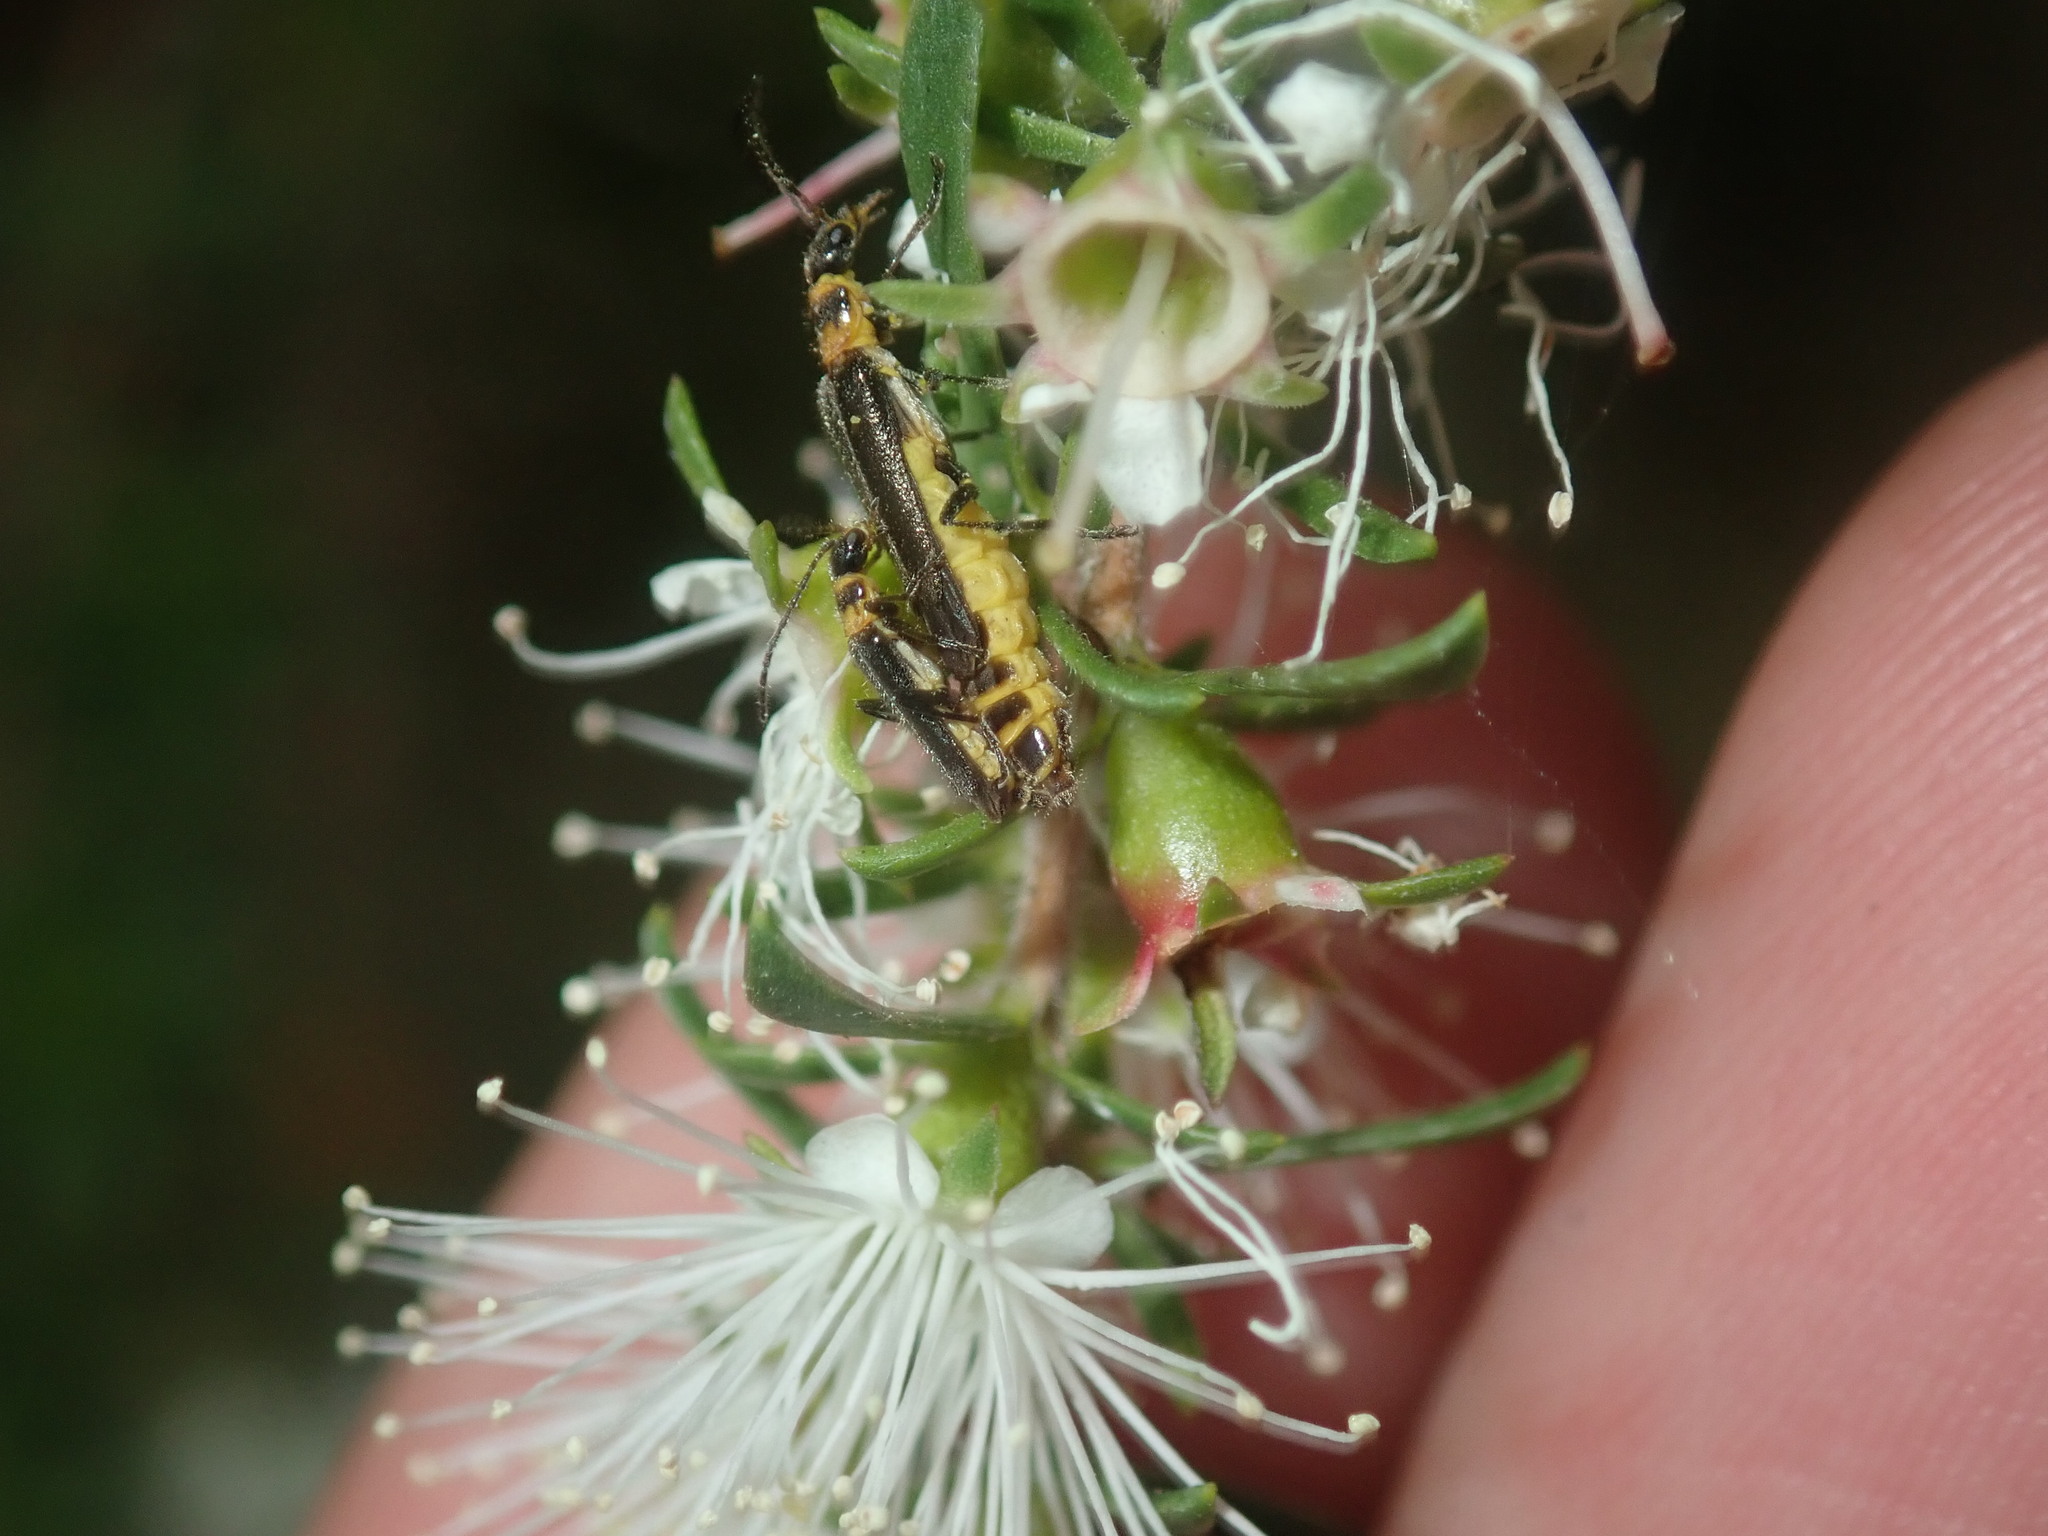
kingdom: Animalia
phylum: Arthropoda
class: Insecta
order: Coleoptera
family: Cantharidae
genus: Chauliognathus
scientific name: Chauliognathus
